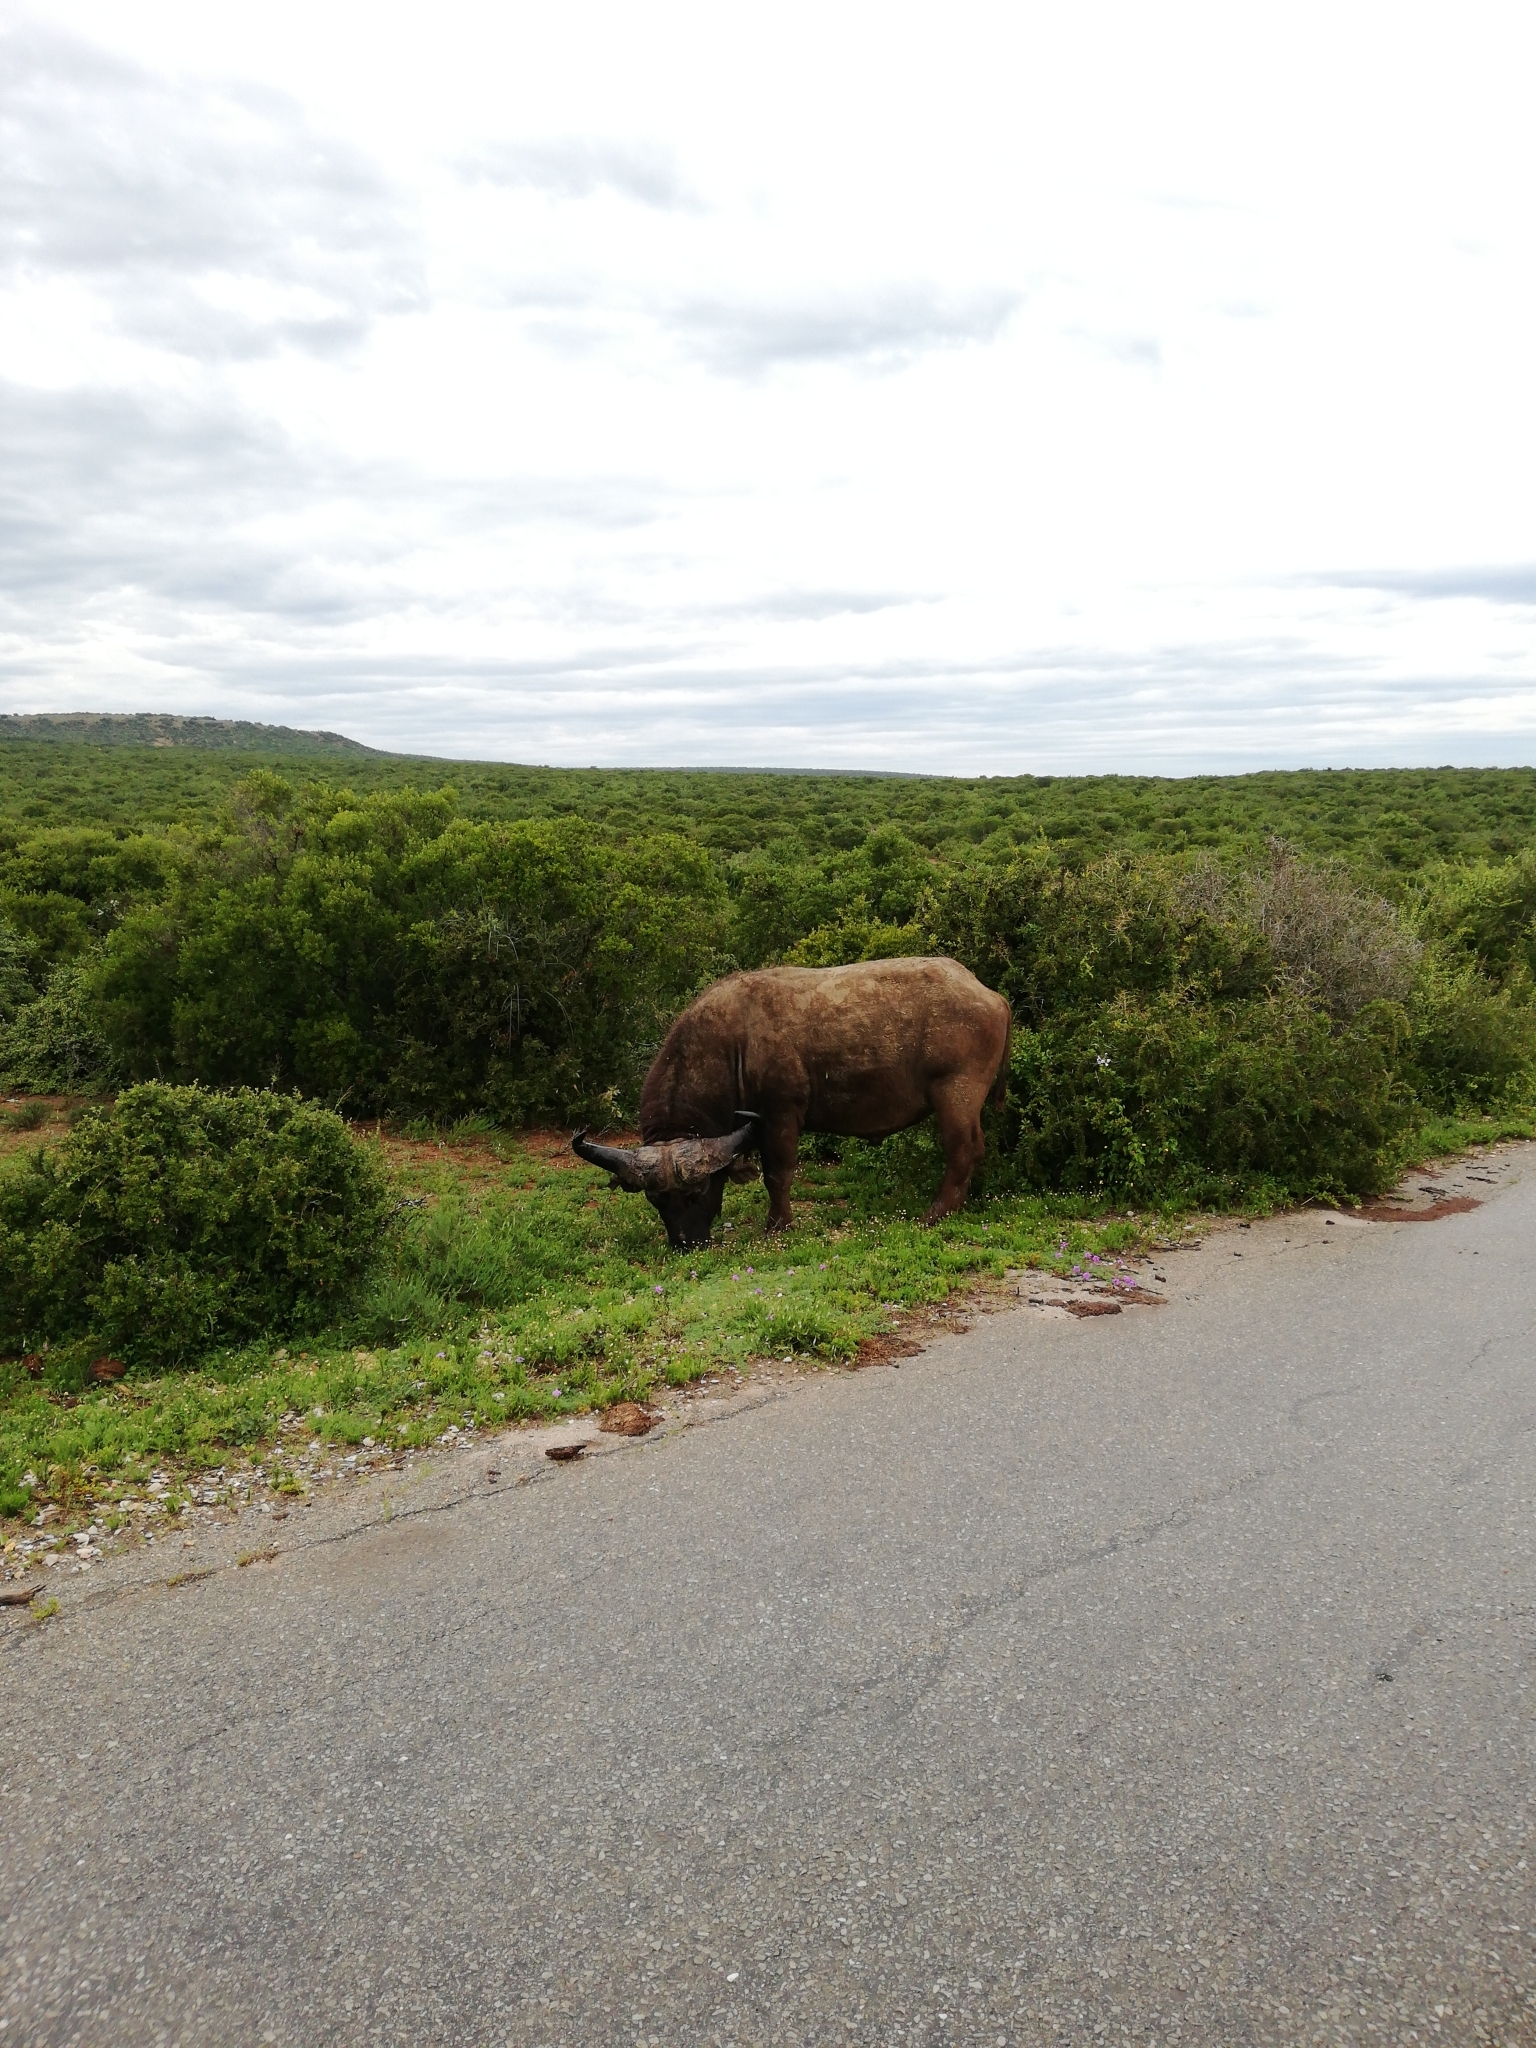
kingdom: Animalia
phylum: Chordata
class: Mammalia
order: Artiodactyla
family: Bovidae
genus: Syncerus
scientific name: Syncerus caffer
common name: African buffalo
